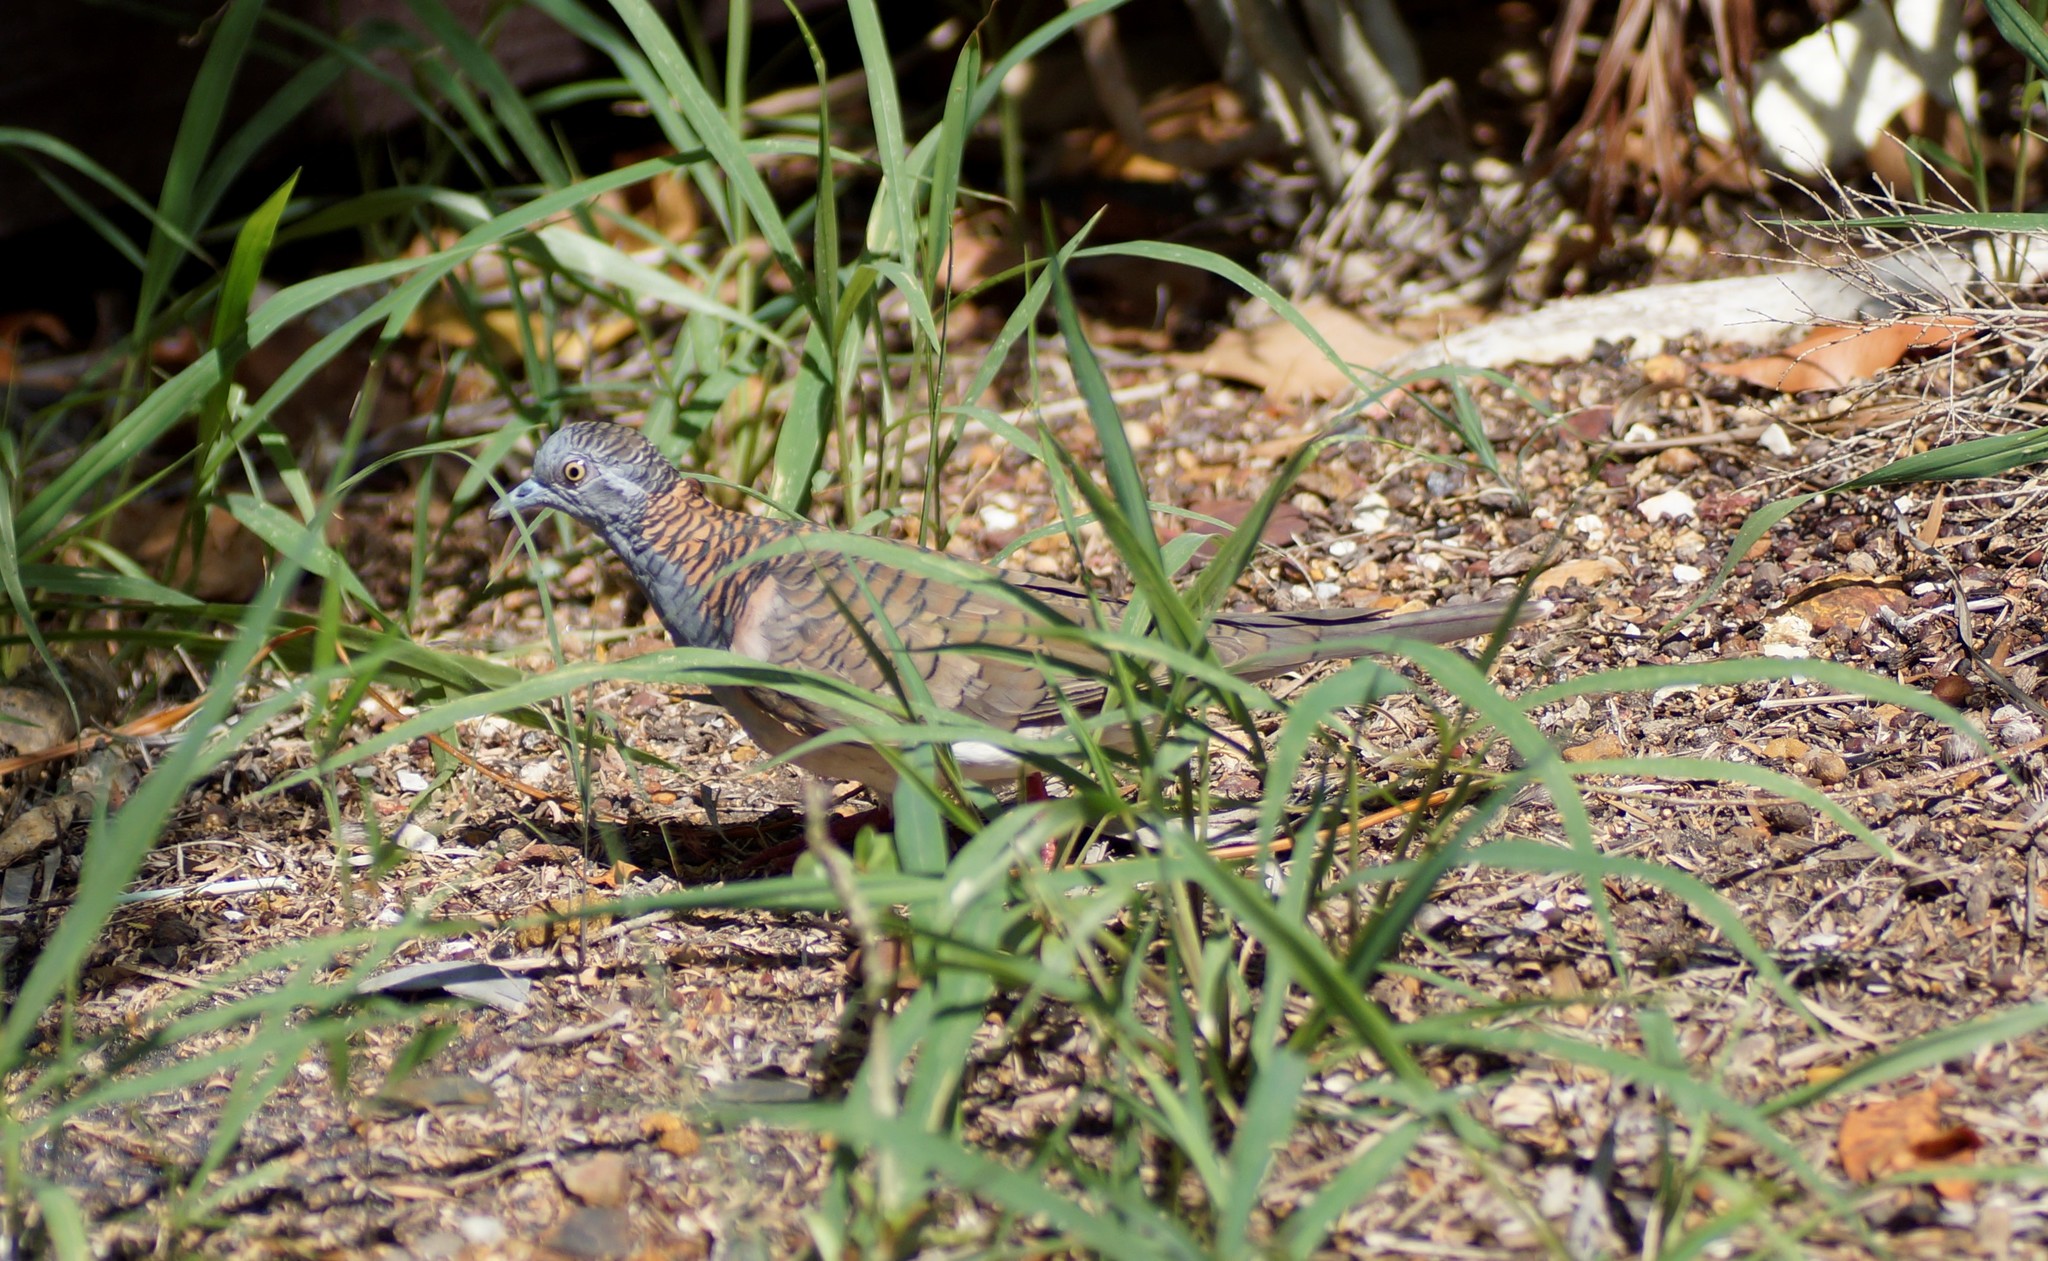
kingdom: Animalia
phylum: Chordata
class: Aves
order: Columbiformes
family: Columbidae
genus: Geopelia
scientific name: Geopelia humeralis
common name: Bar-shouldered dove
